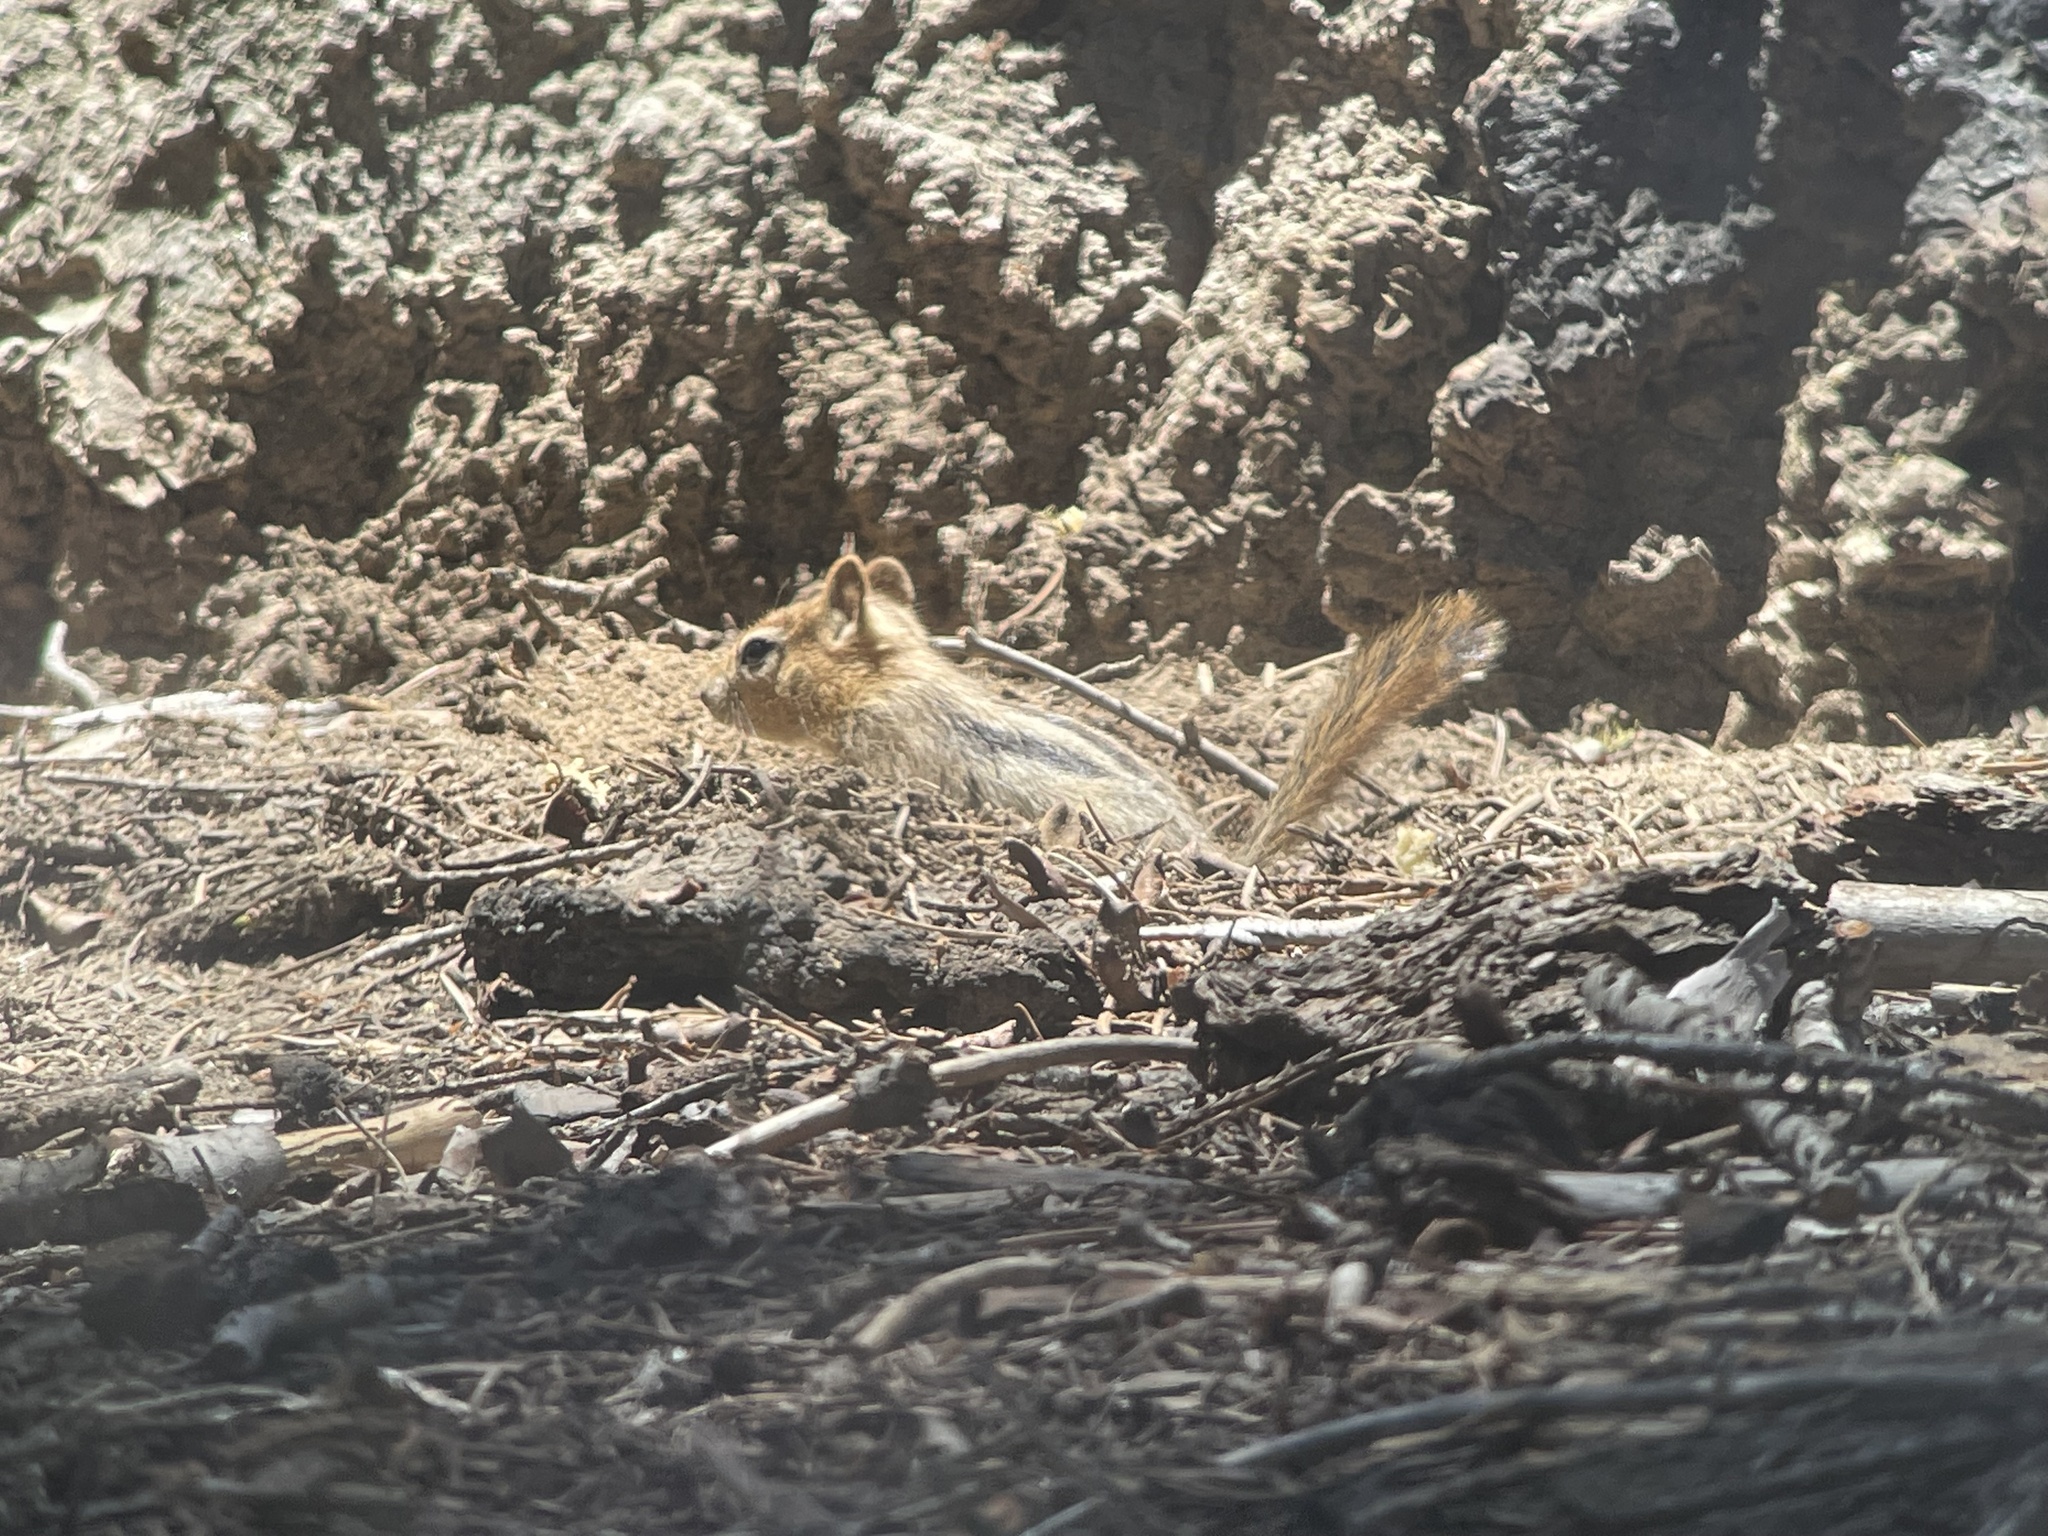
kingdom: Animalia
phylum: Chordata
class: Mammalia
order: Rodentia
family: Sciuridae
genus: Callospermophilus
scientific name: Callospermophilus lateralis
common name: Golden-mantled ground squirrel
